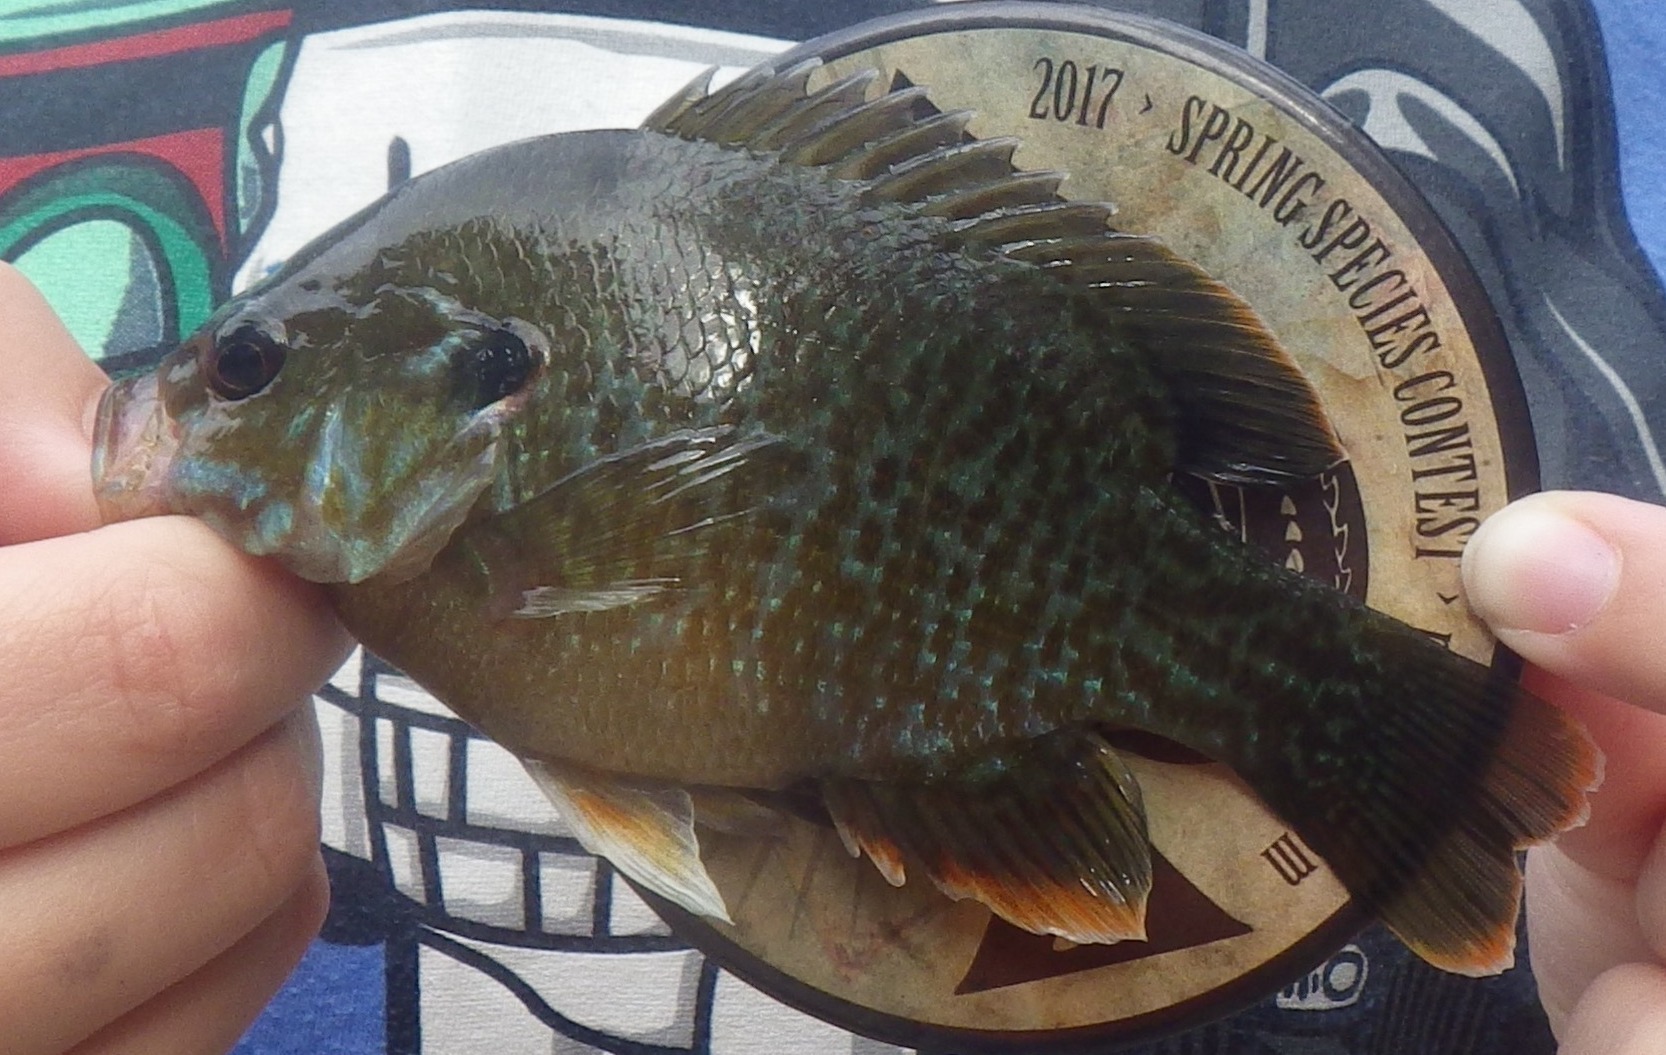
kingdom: Animalia
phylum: Chordata
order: Perciformes
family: Centrarchidae
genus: Lepomis
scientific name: Lepomis
